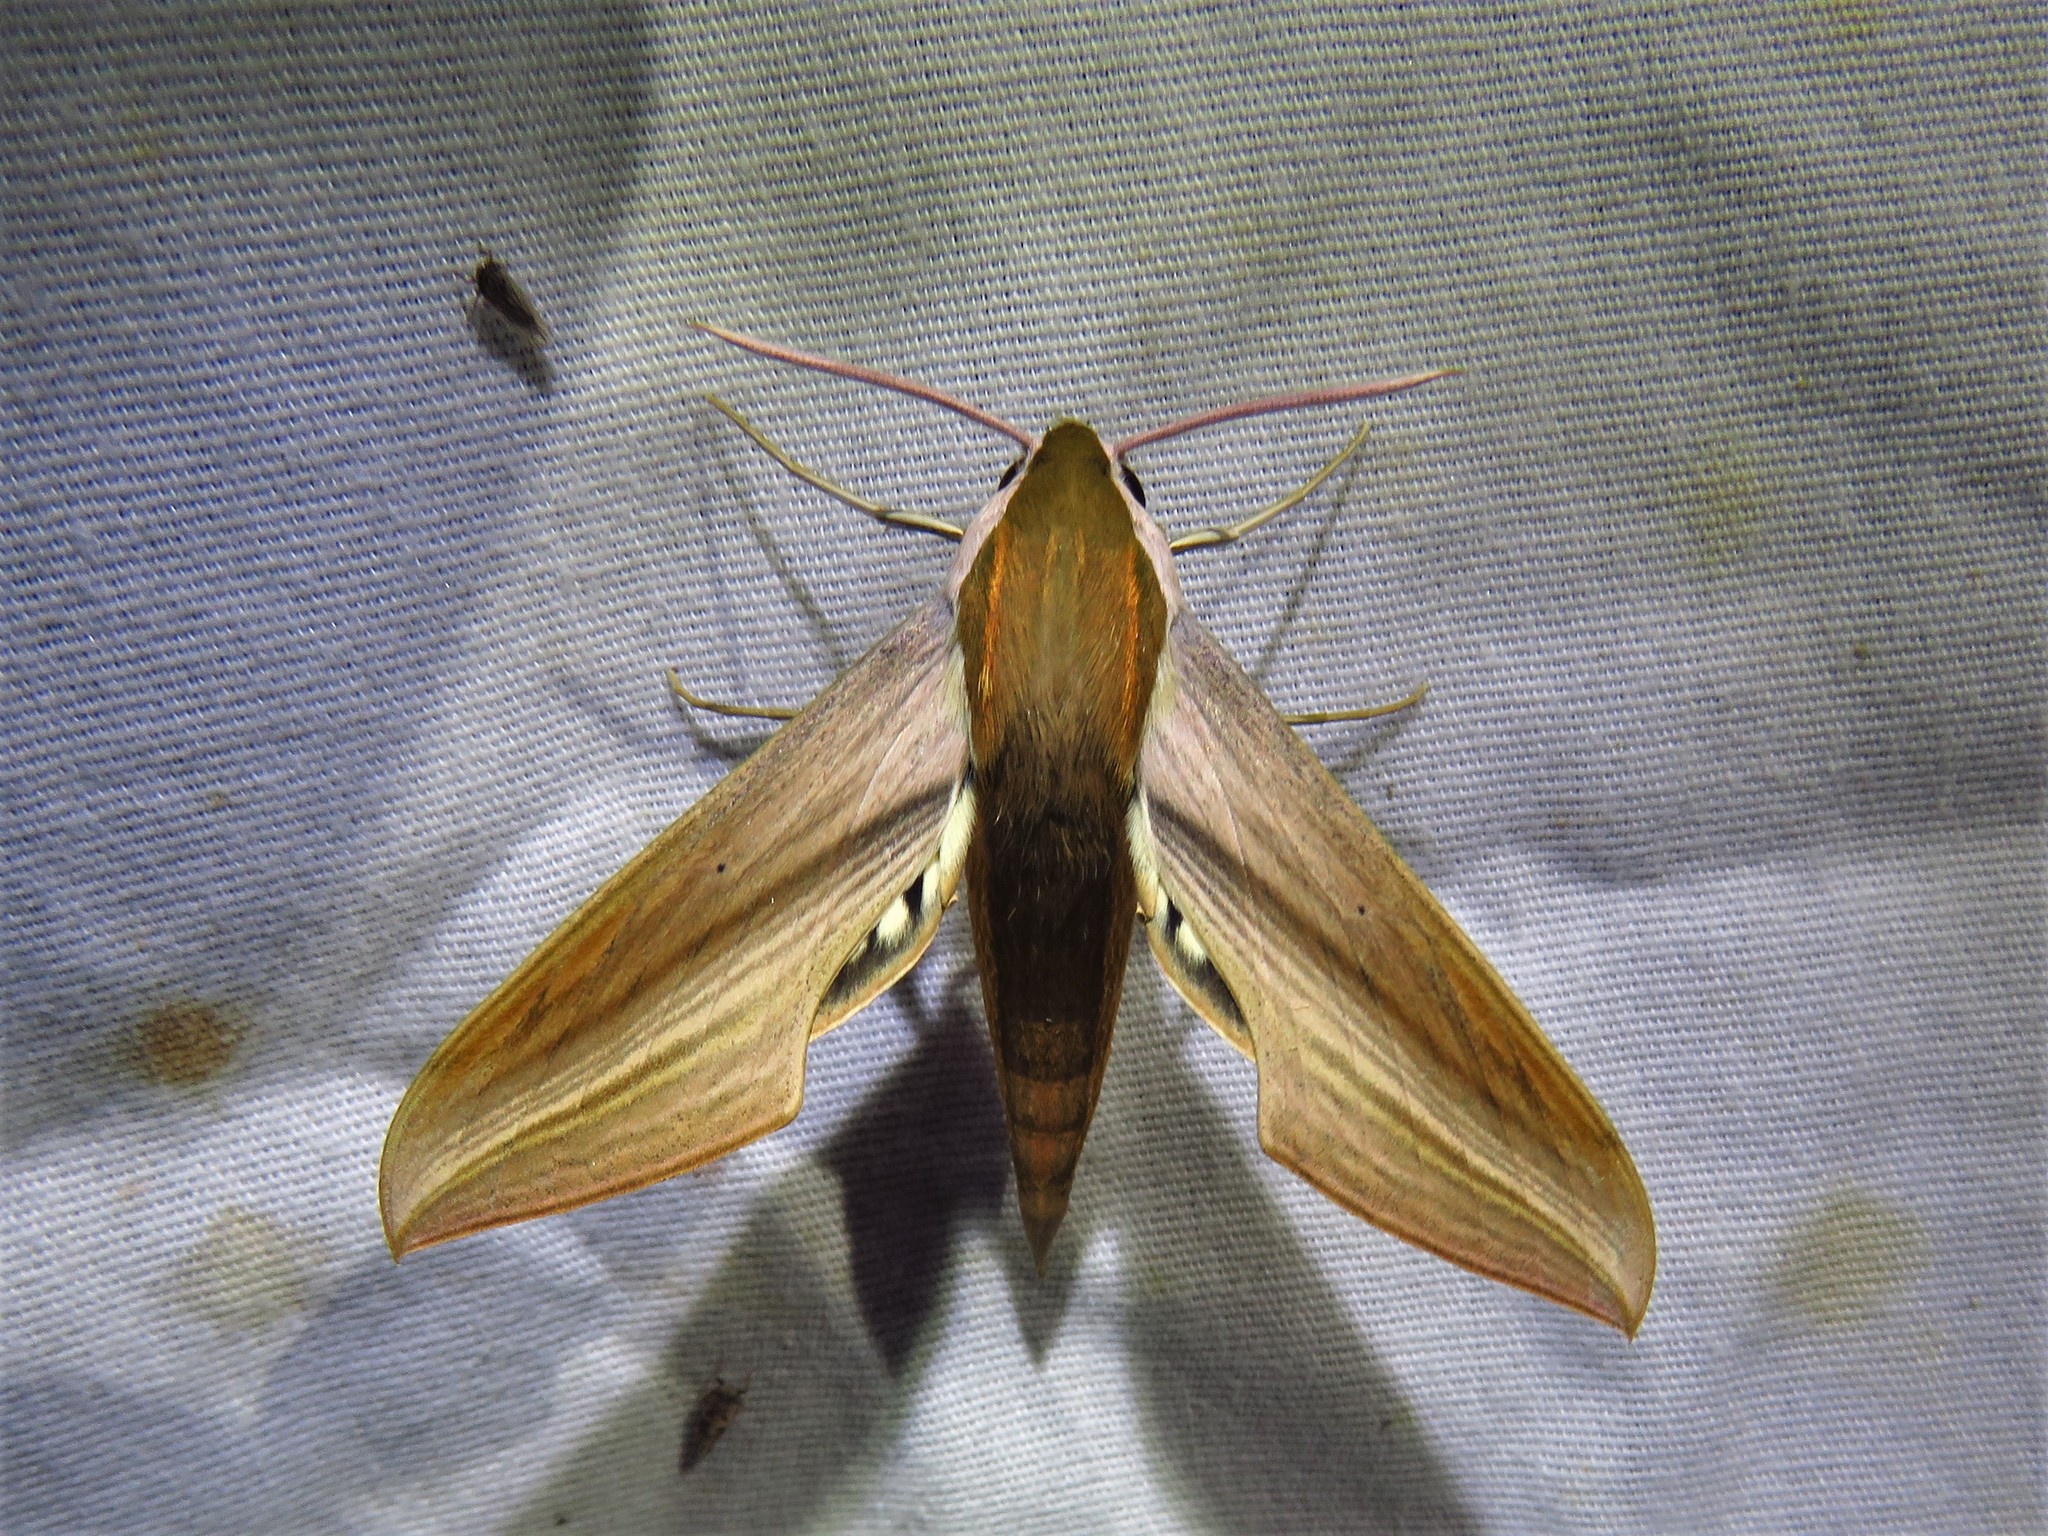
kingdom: Animalia
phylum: Arthropoda
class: Insecta
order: Lepidoptera
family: Sphingidae
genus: Xylophanes
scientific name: Xylophanes tersa
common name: Tersa sphinx
